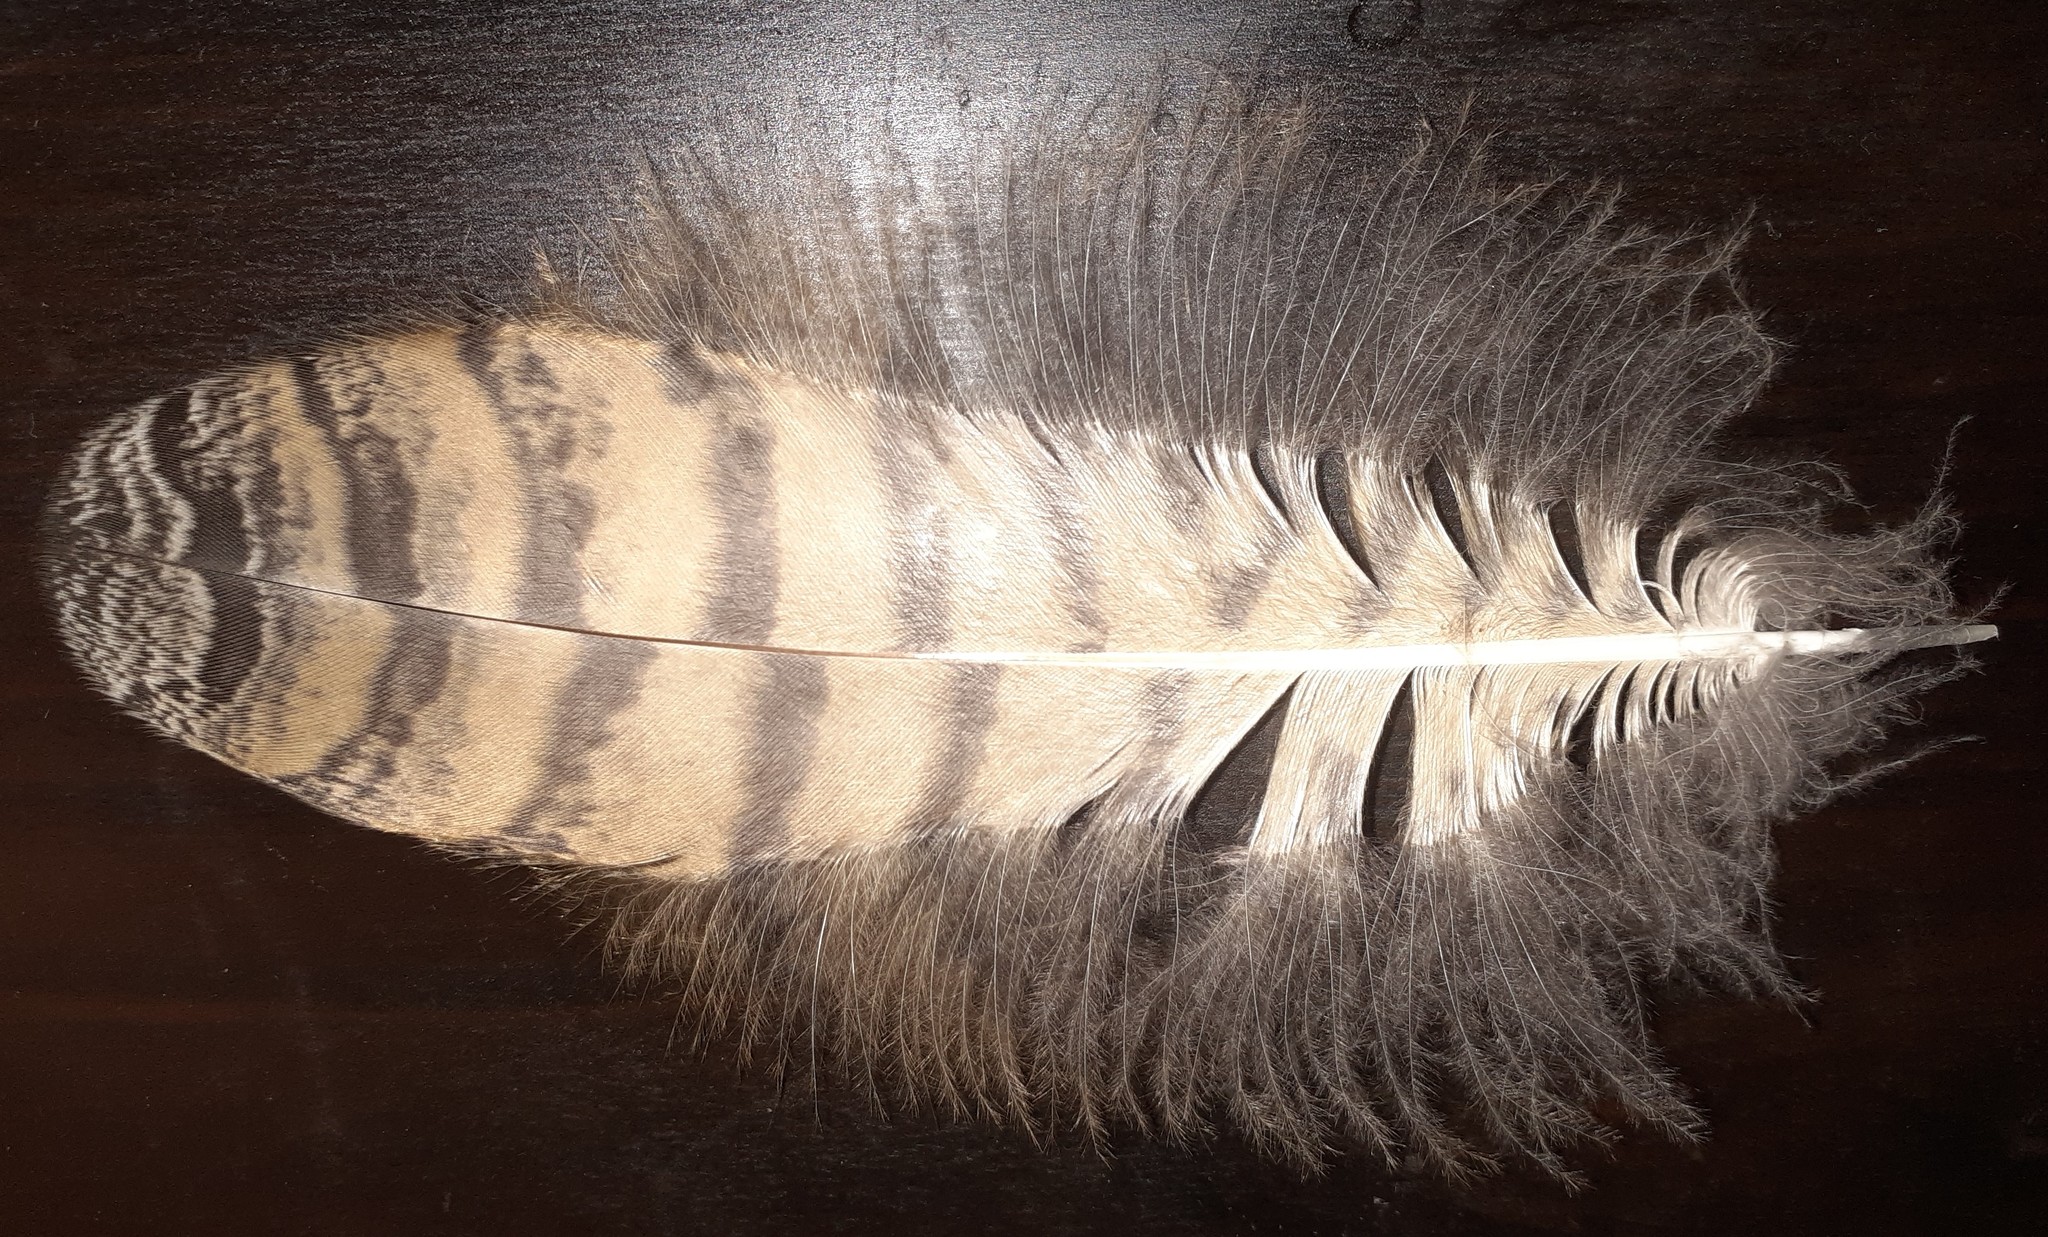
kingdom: Animalia
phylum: Chordata
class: Aves
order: Strigiformes
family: Strigidae
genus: Bubo
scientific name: Bubo virginianus
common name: Great horned owl
